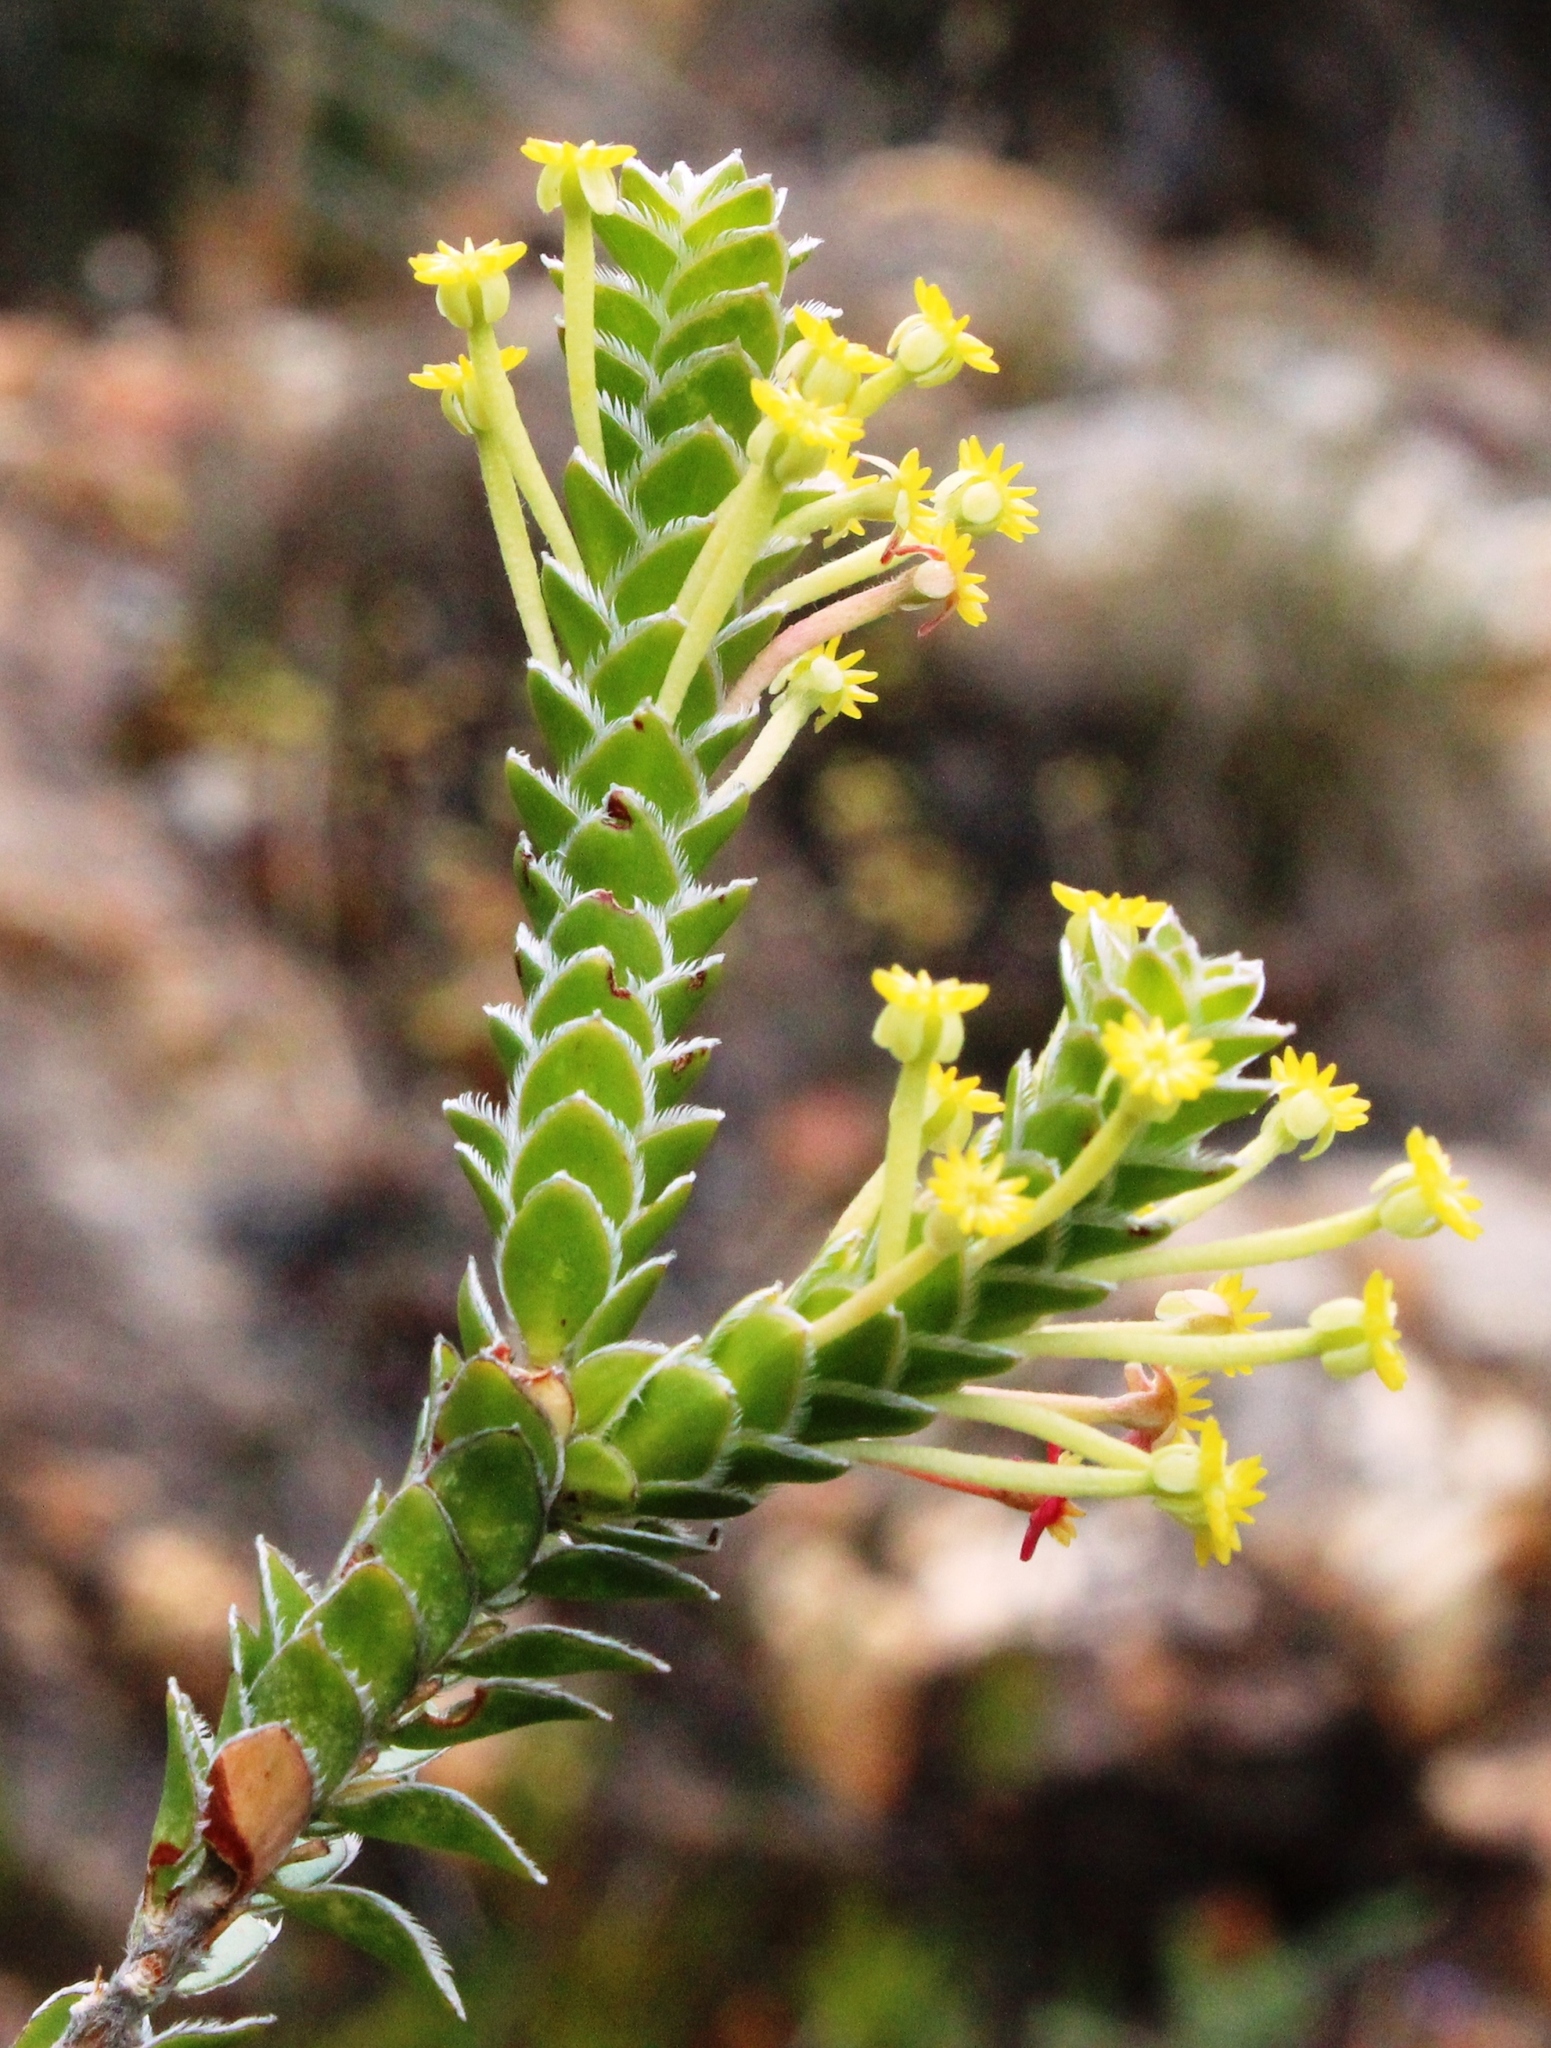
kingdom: Plantae
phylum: Tracheophyta
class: Magnoliopsida
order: Malvales
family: Thymelaeaceae
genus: Struthiola
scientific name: Struthiola argentea
